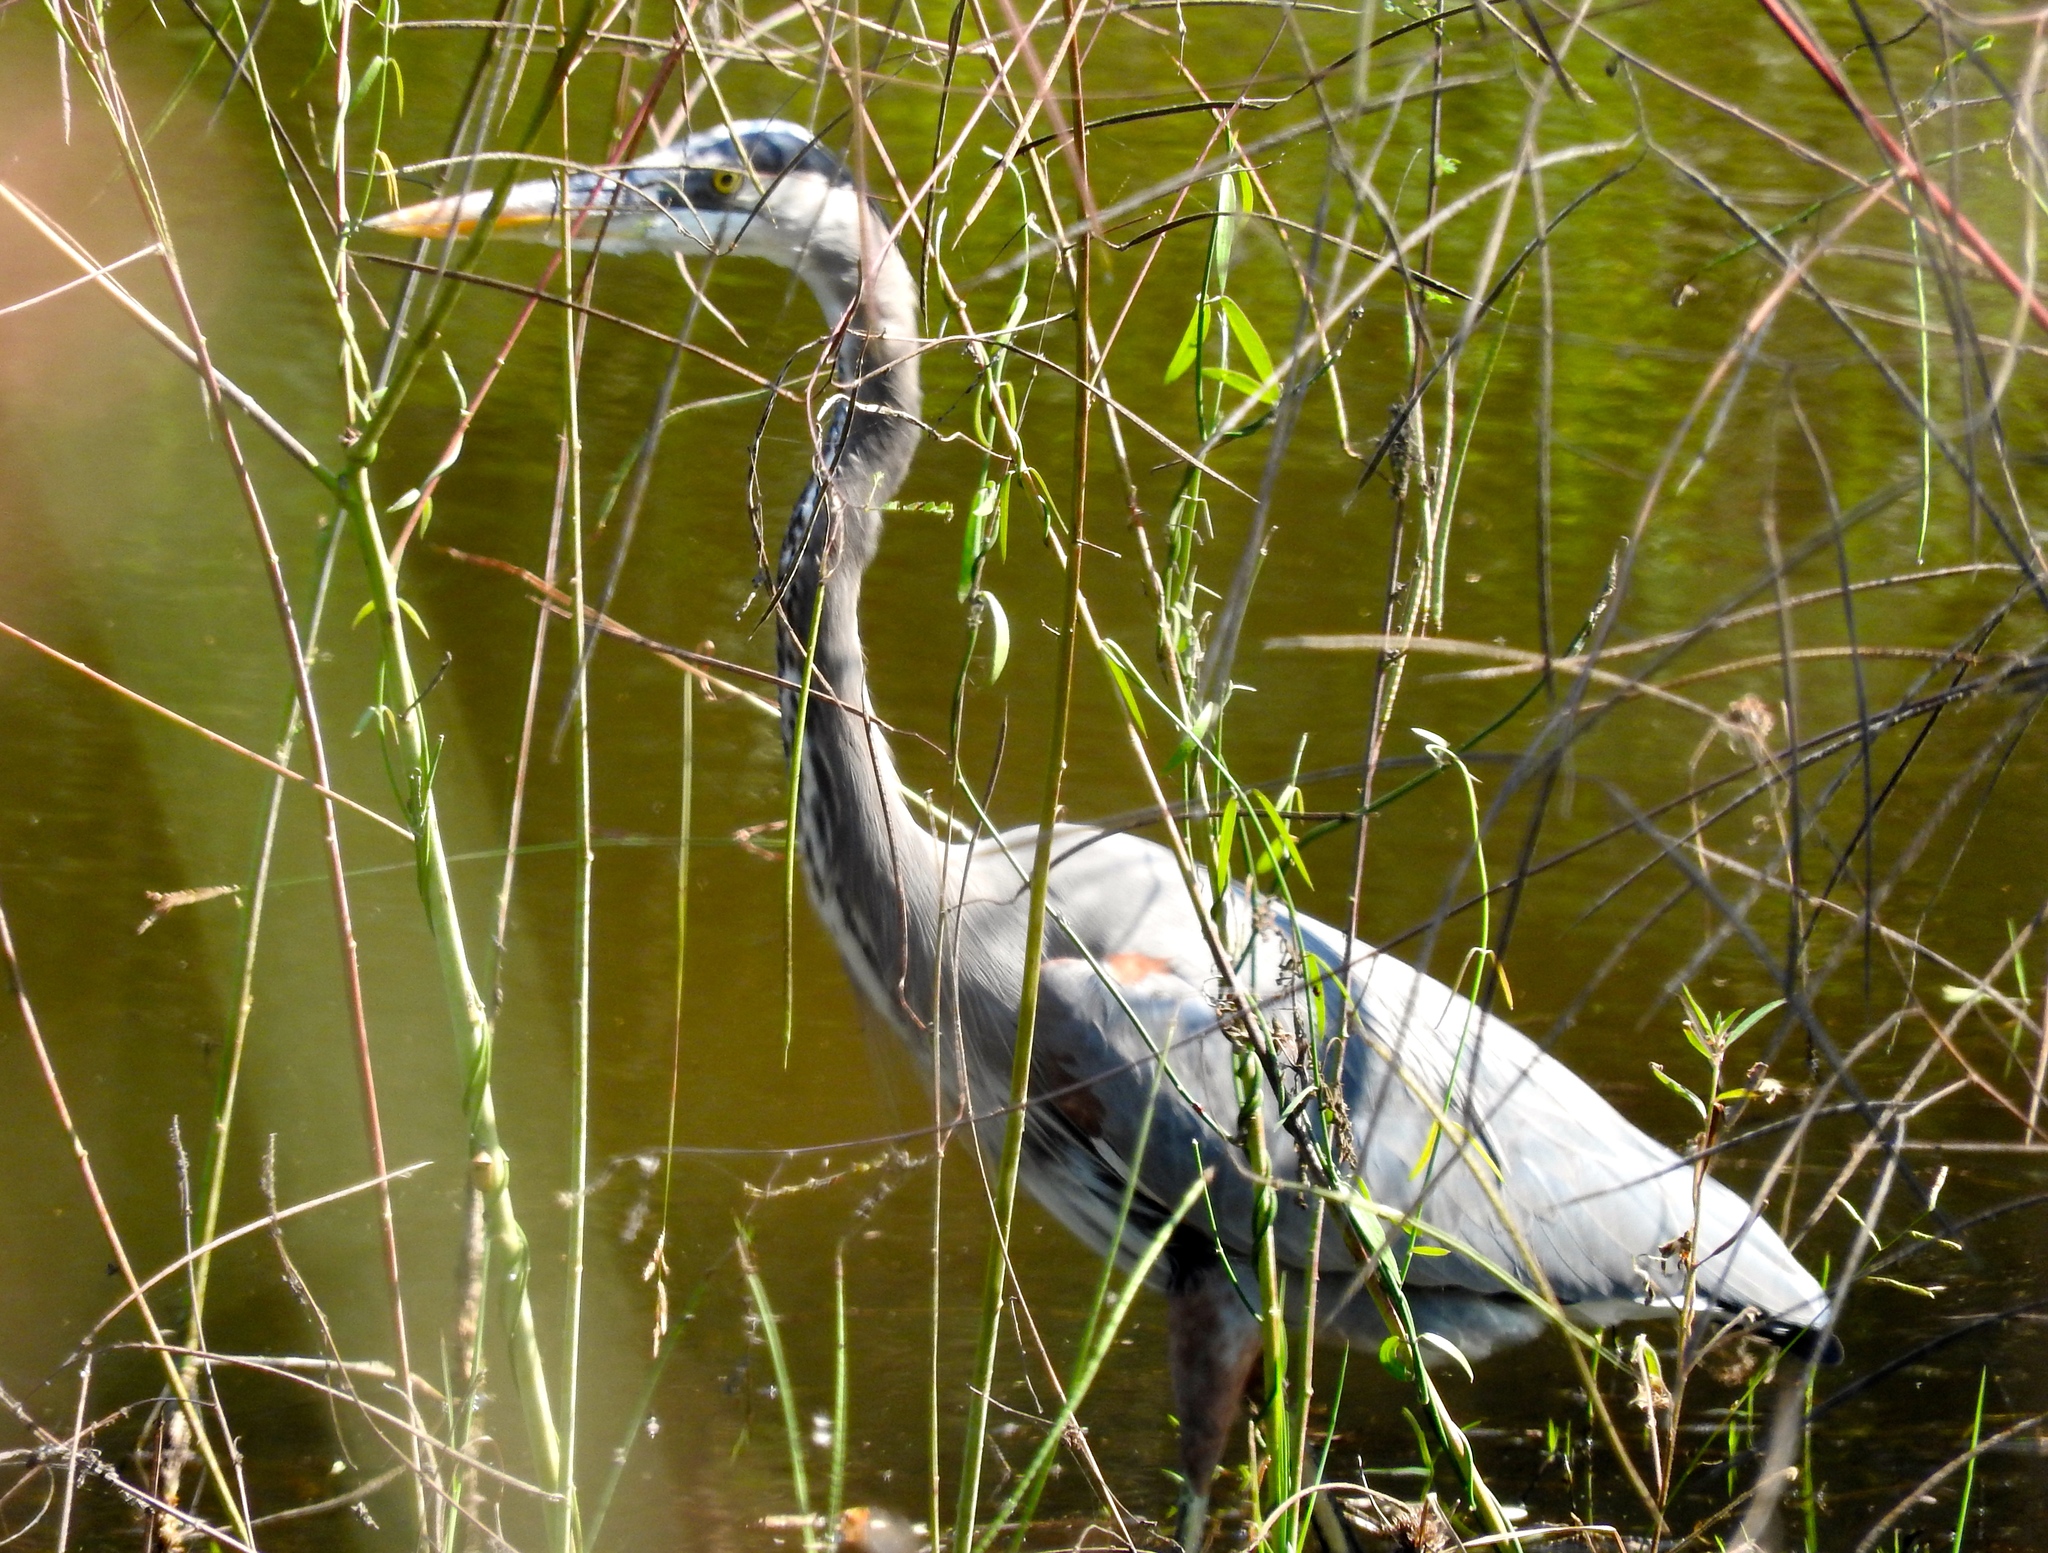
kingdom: Animalia
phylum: Chordata
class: Aves
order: Pelecaniformes
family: Ardeidae
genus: Ardea
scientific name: Ardea herodias
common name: Great blue heron
